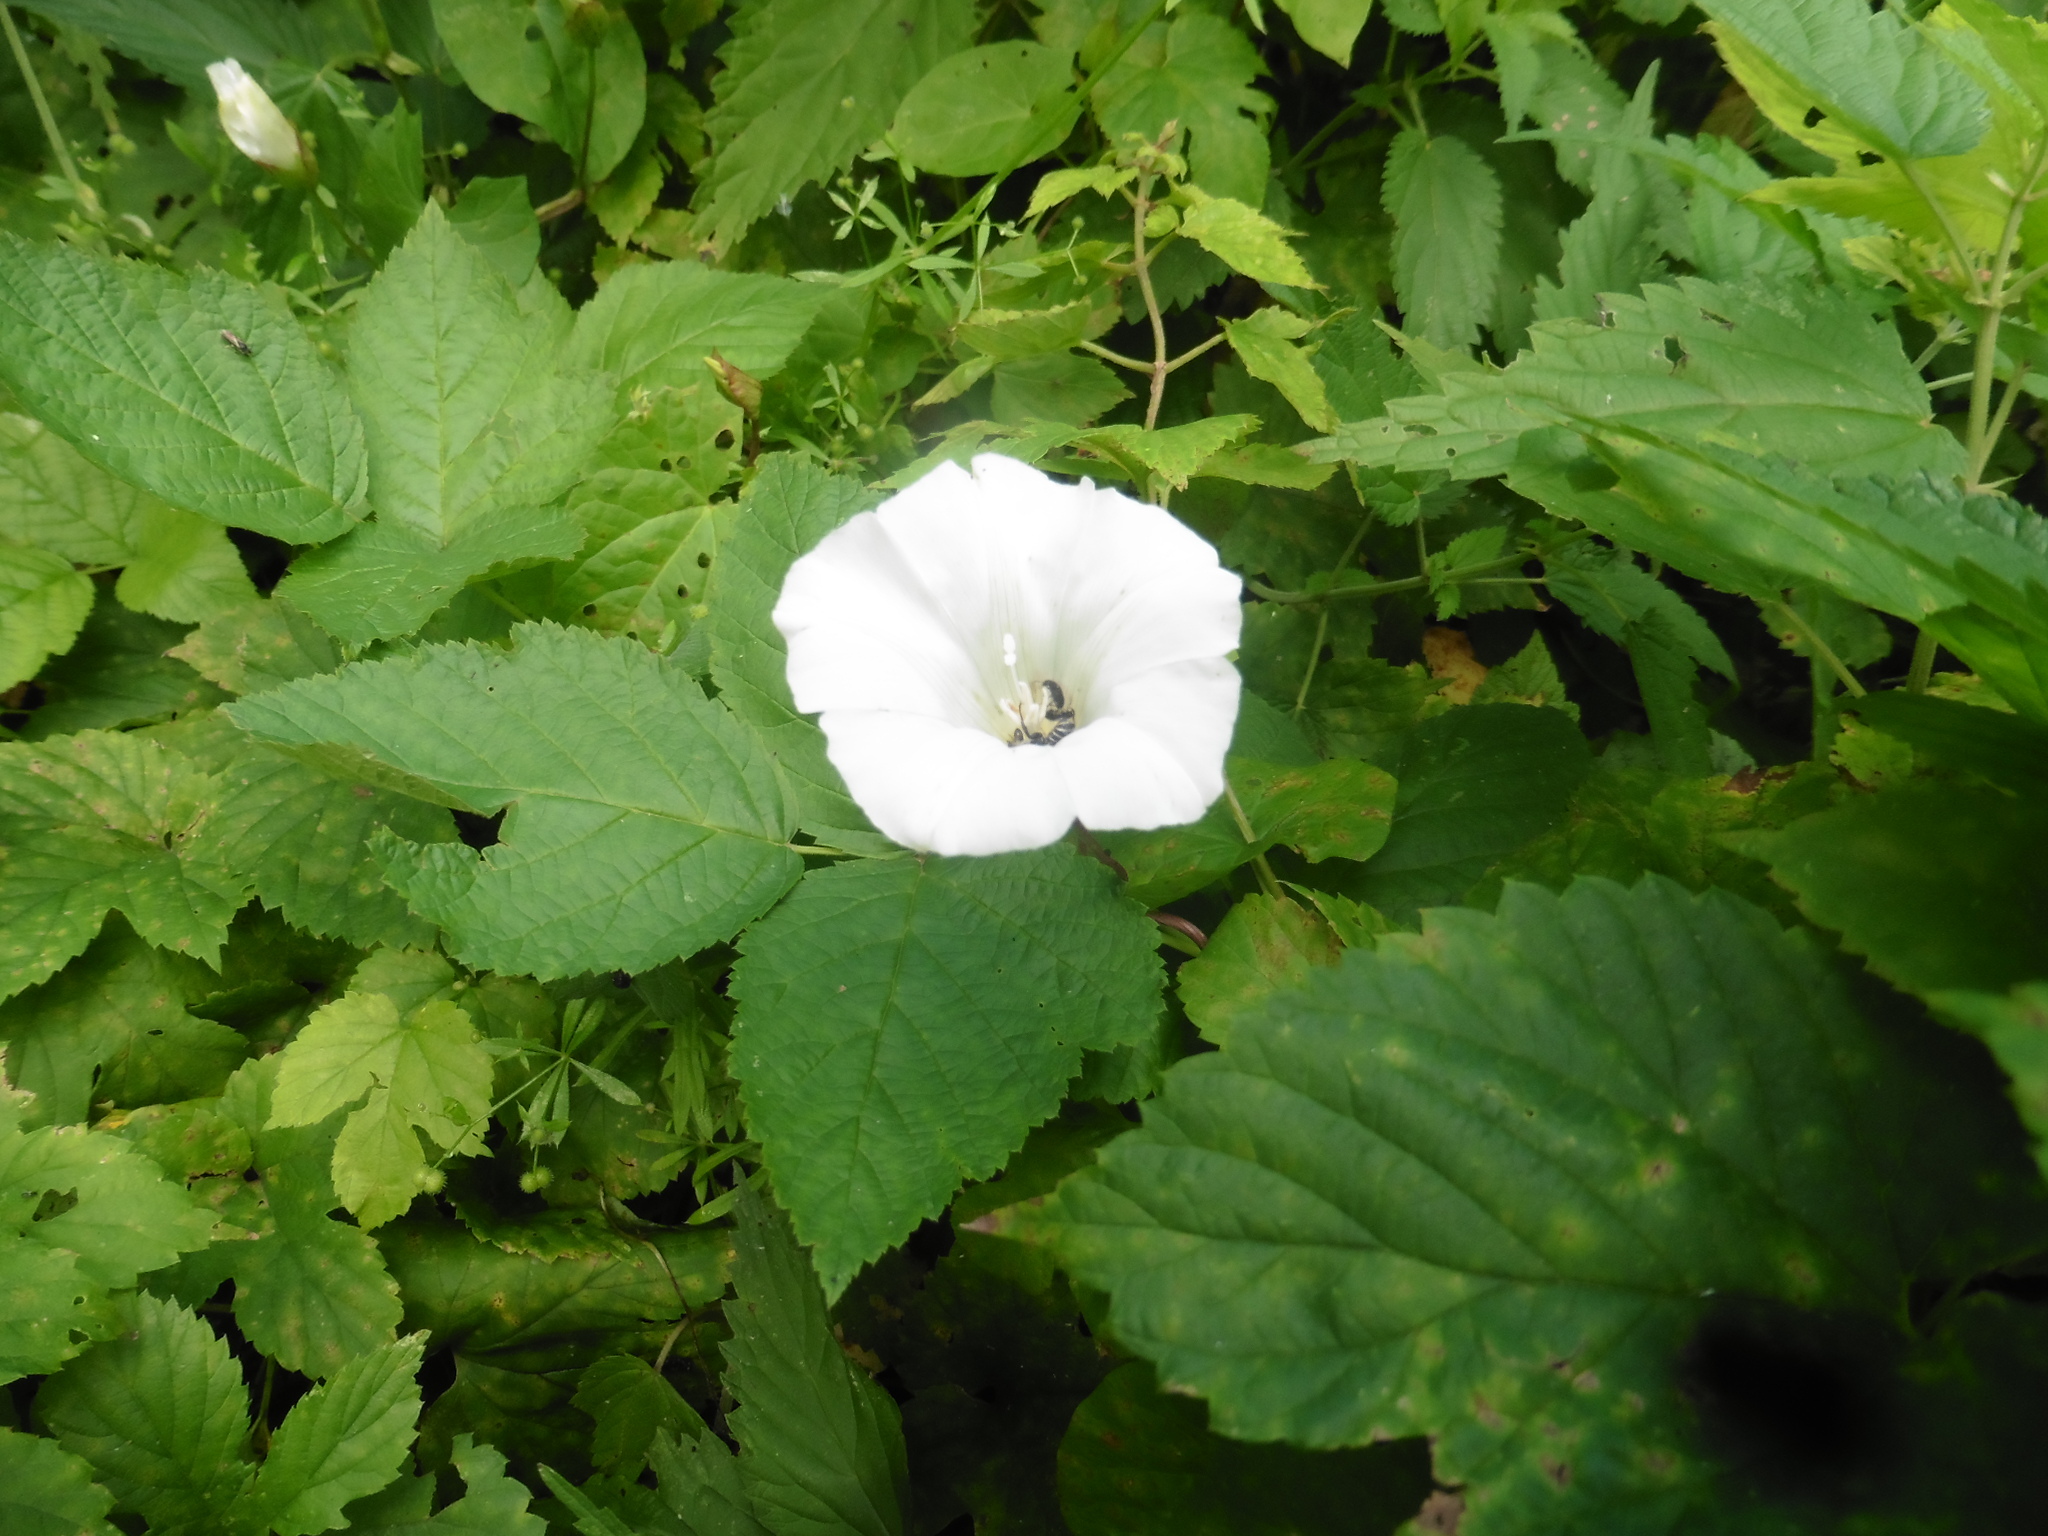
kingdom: Plantae
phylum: Tracheophyta
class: Magnoliopsida
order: Solanales
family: Convolvulaceae
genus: Calystegia
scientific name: Calystegia sepium
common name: Hedge bindweed
